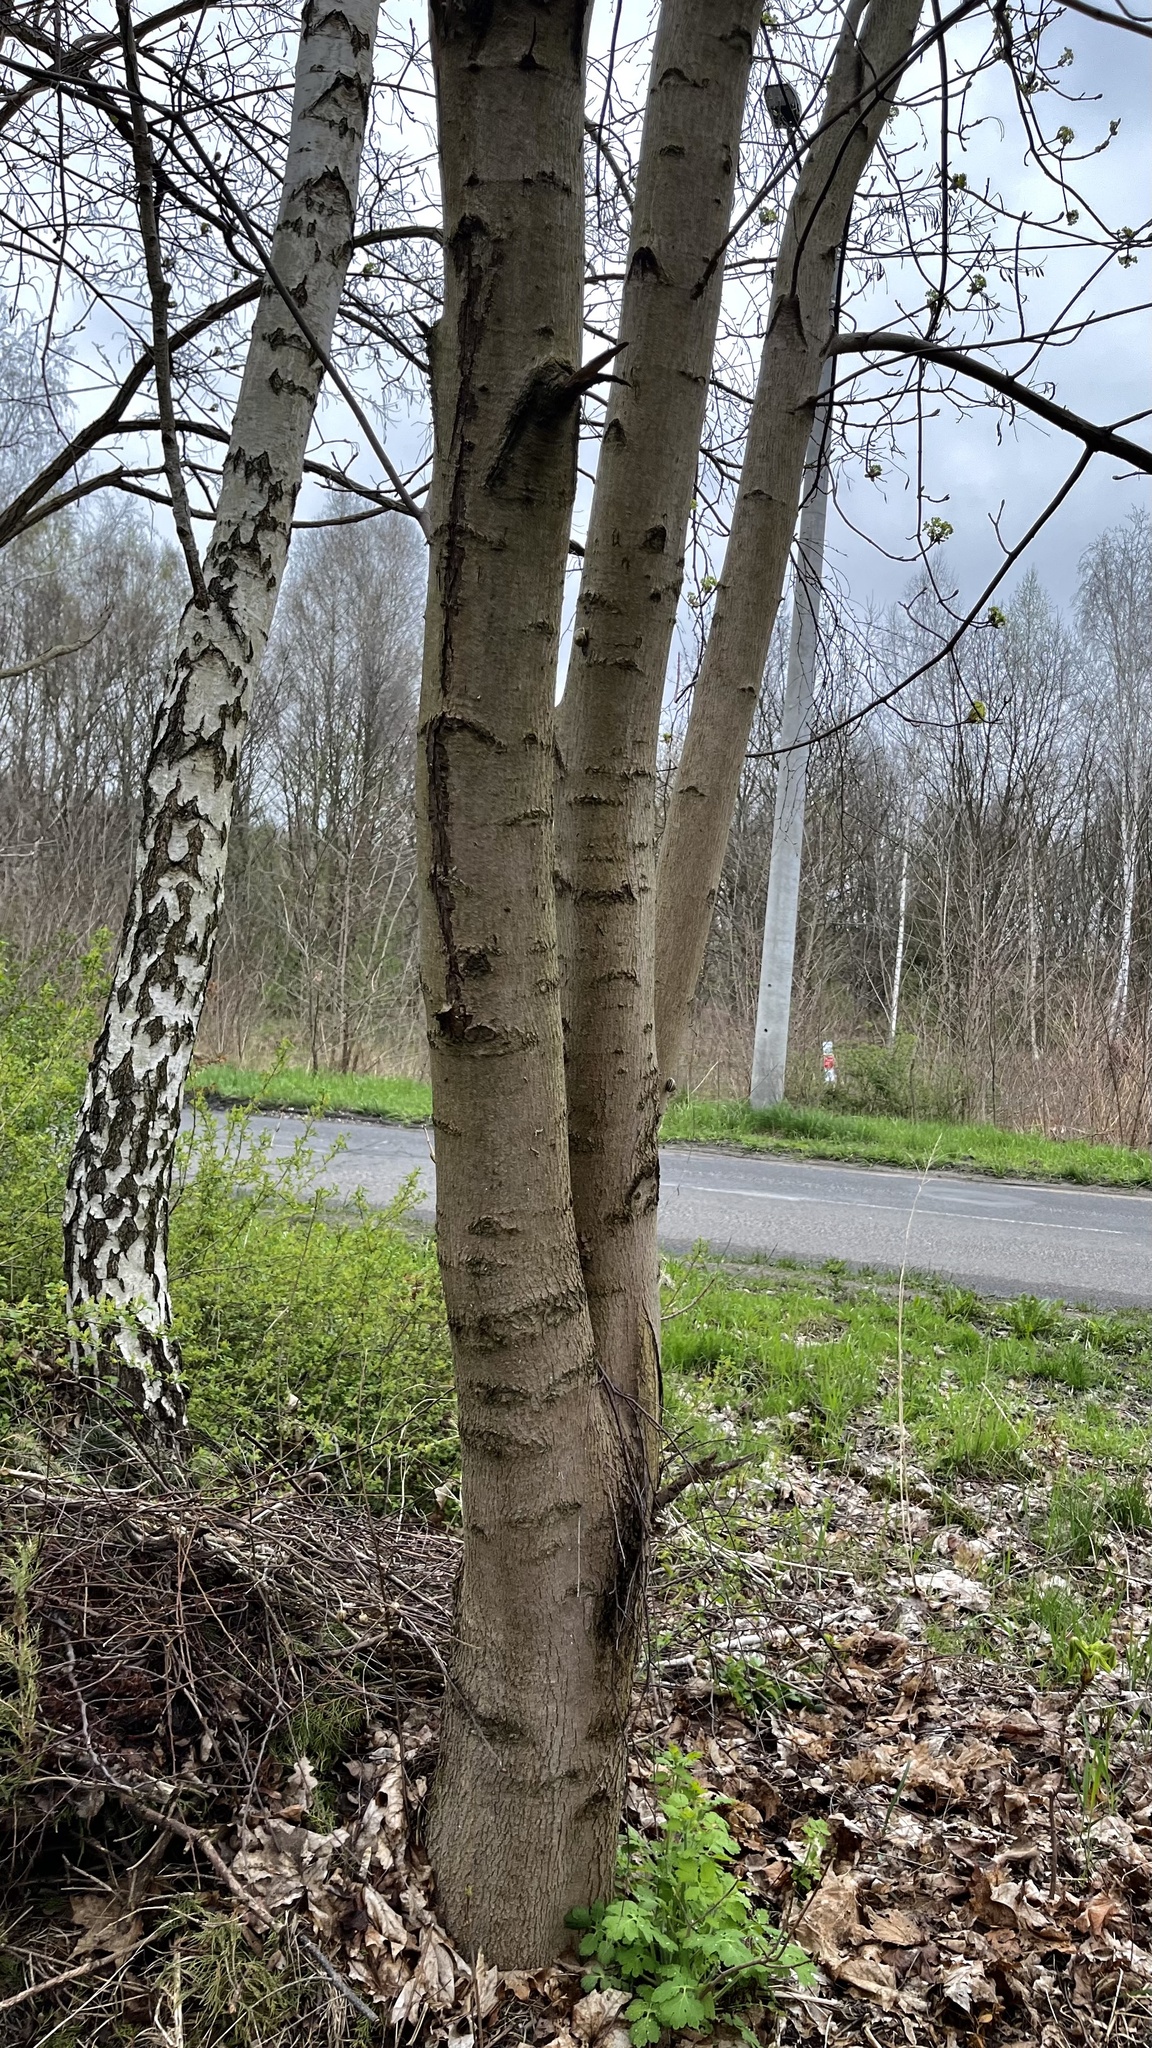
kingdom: Plantae
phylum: Tracheophyta
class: Magnoliopsida
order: Sapindales
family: Sapindaceae
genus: Acer
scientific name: Acer platanoides
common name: Norway maple
